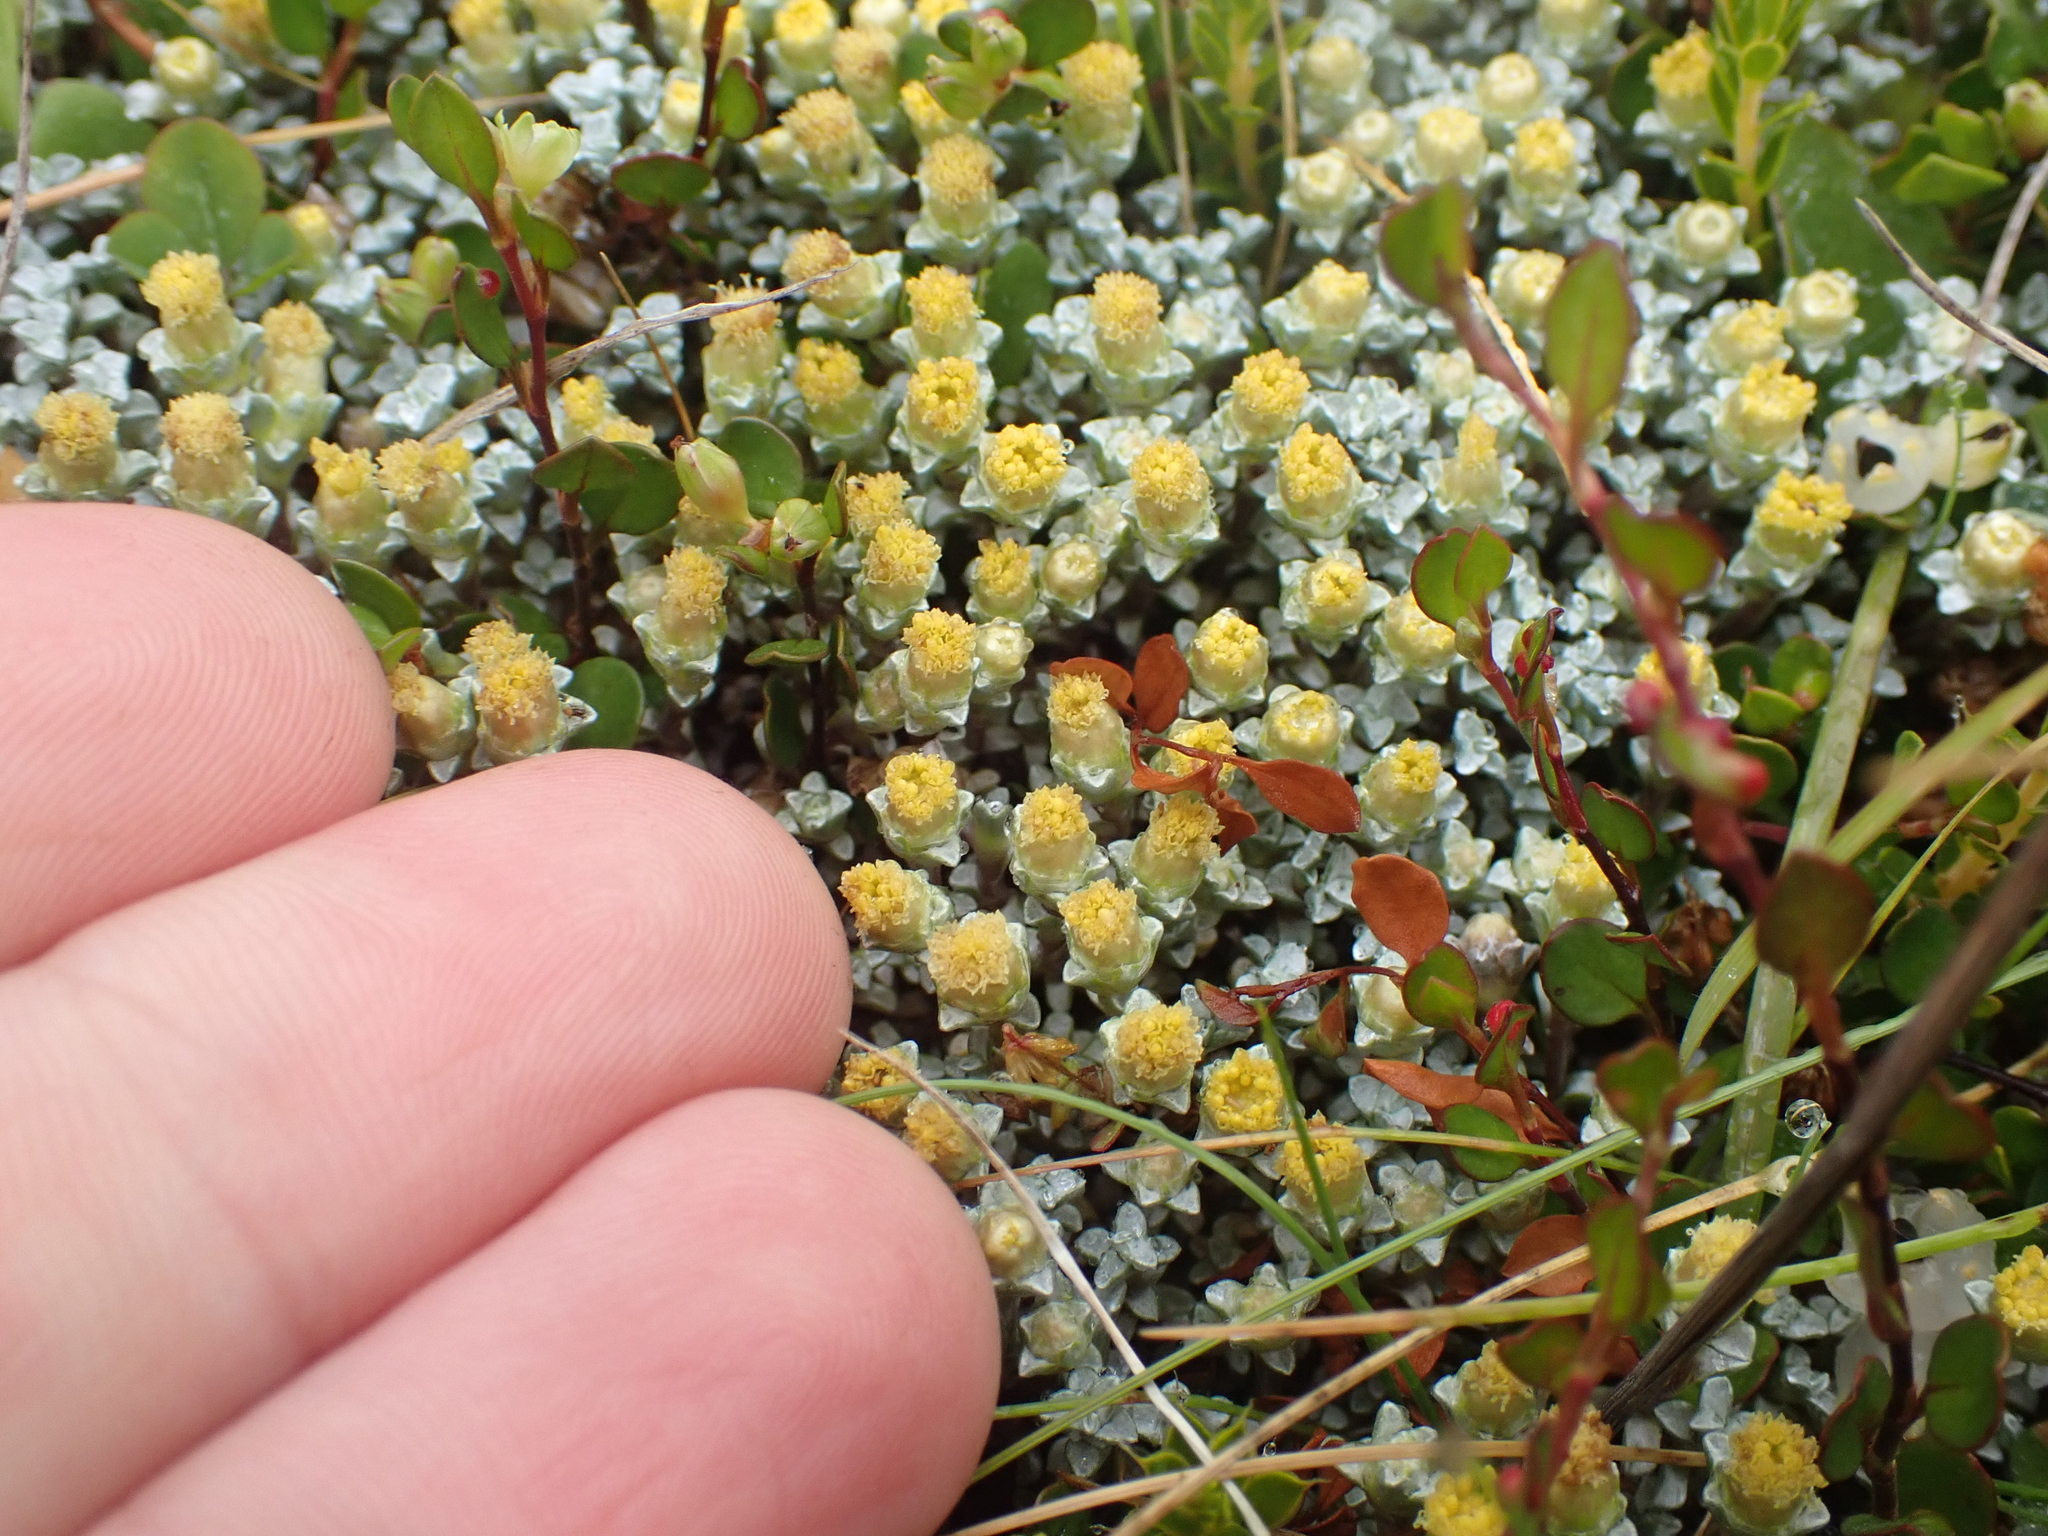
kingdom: Plantae
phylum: Tracheophyta
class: Magnoliopsida
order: Asterales
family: Asteraceae
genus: Raoulia
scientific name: Raoulia hookeri
